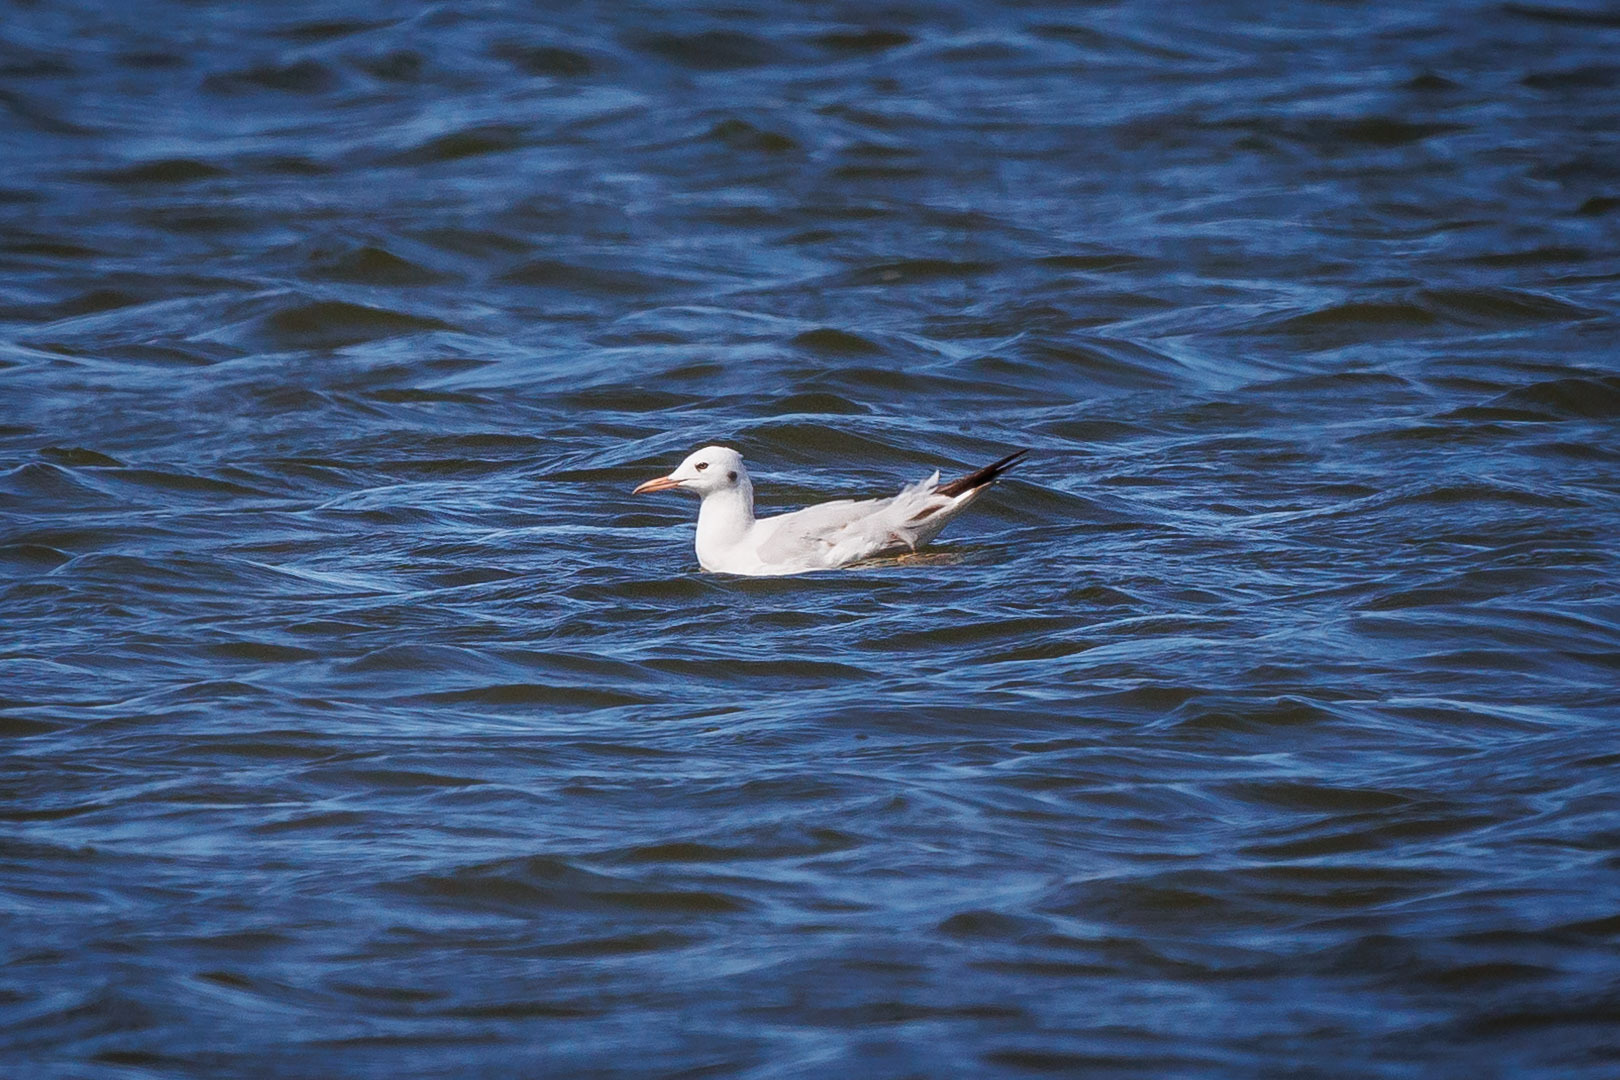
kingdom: Animalia
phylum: Chordata
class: Aves
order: Charadriiformes
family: Laridae
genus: Chroicocephalus
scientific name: Chroicocephalus genei
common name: Slender-billed gull
